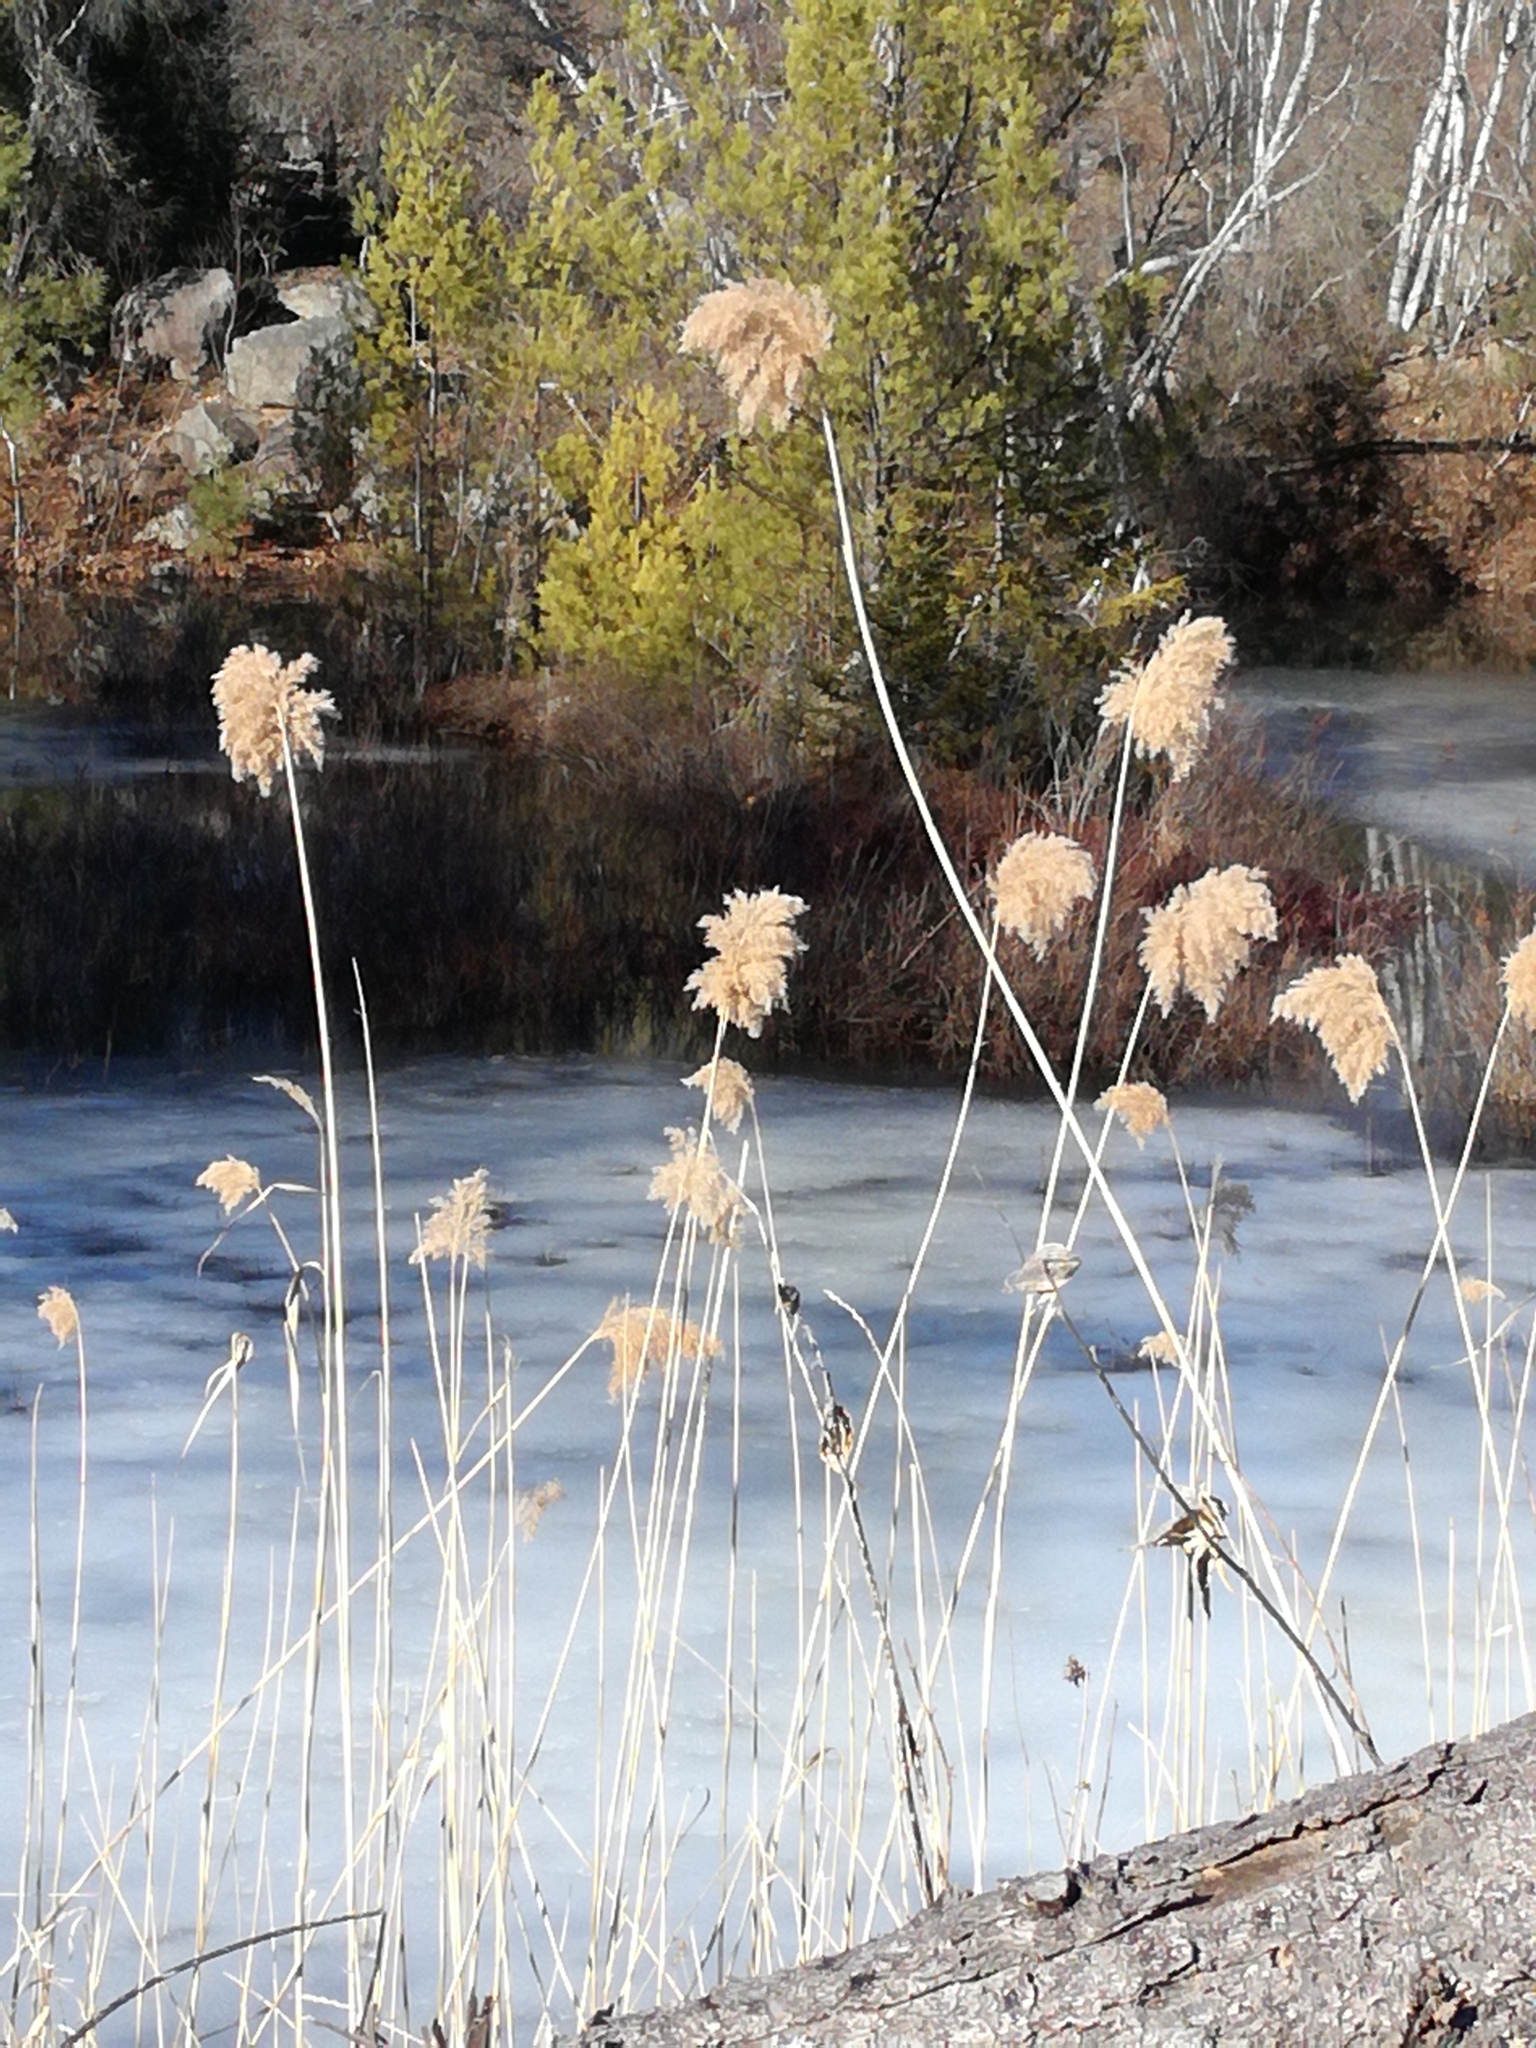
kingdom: Plantae
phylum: Tracheophyta
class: Liliopsida
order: Poales
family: Poaceae
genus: Phragmites
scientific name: Phragmites australis
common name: Common reed
